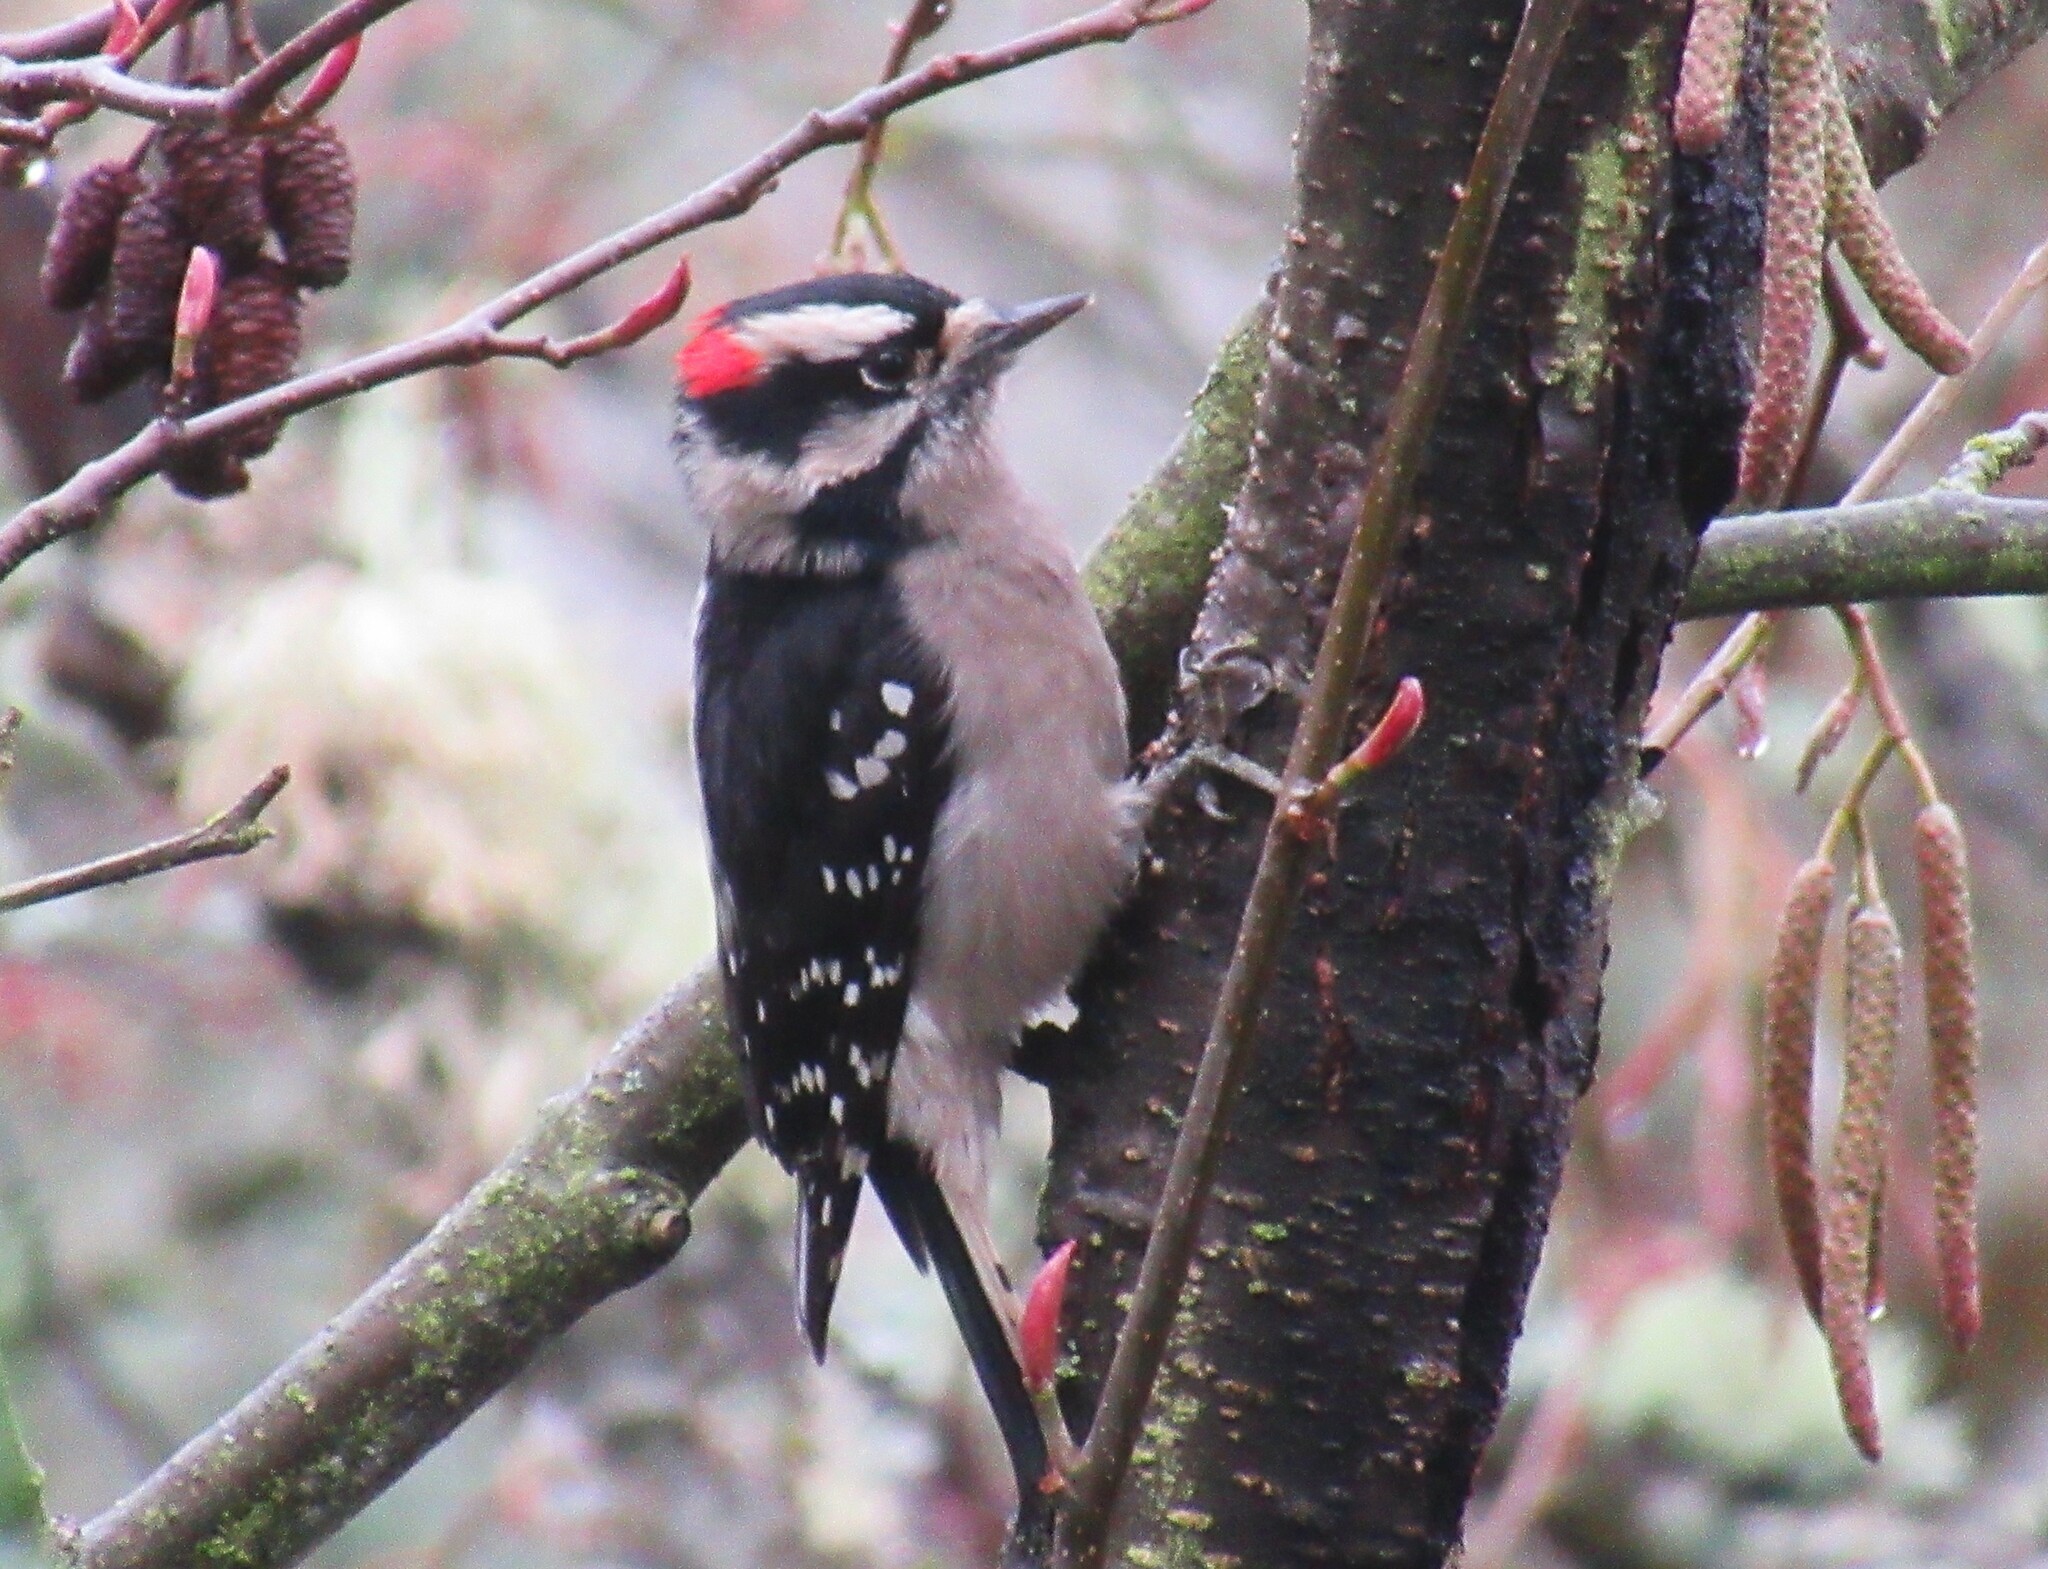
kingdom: Animalia
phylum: Chordata
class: Aves
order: Piciformes
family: Picidae
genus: Dryobates
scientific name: Dryobates pubescens
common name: Downy woodpecker
